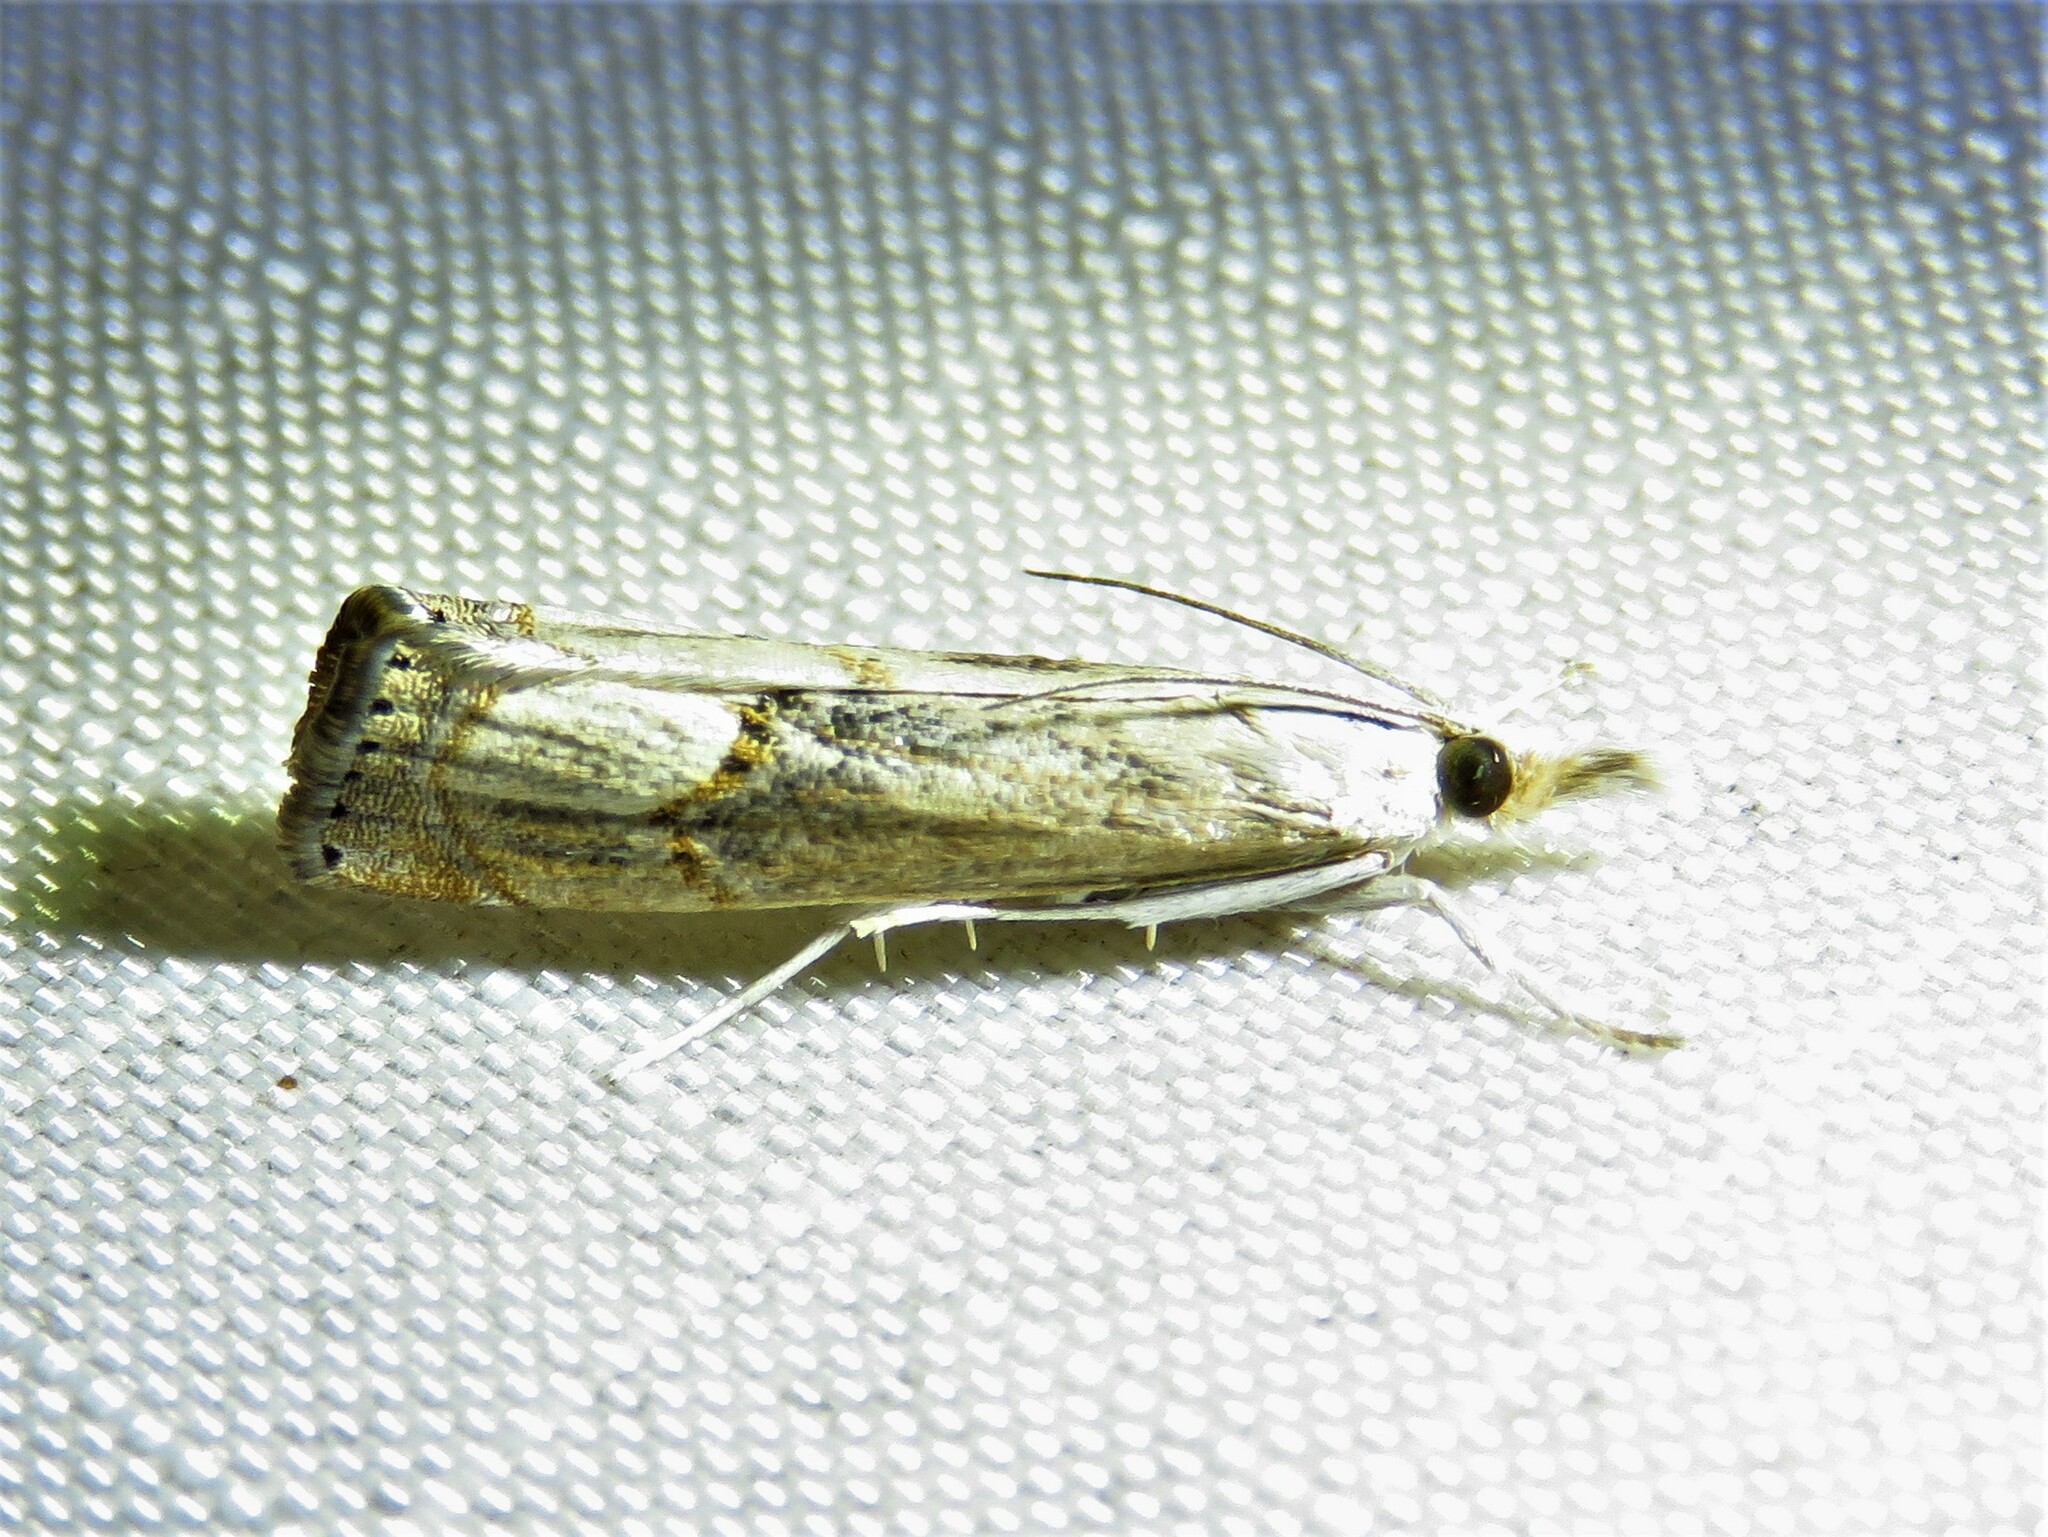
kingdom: Animalia
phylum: Arthropoda
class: Insecta
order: Lepidoptera
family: Crambidae
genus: Parapediasia
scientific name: Parapediasia teterellus
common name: Bluegrass webworm moth
